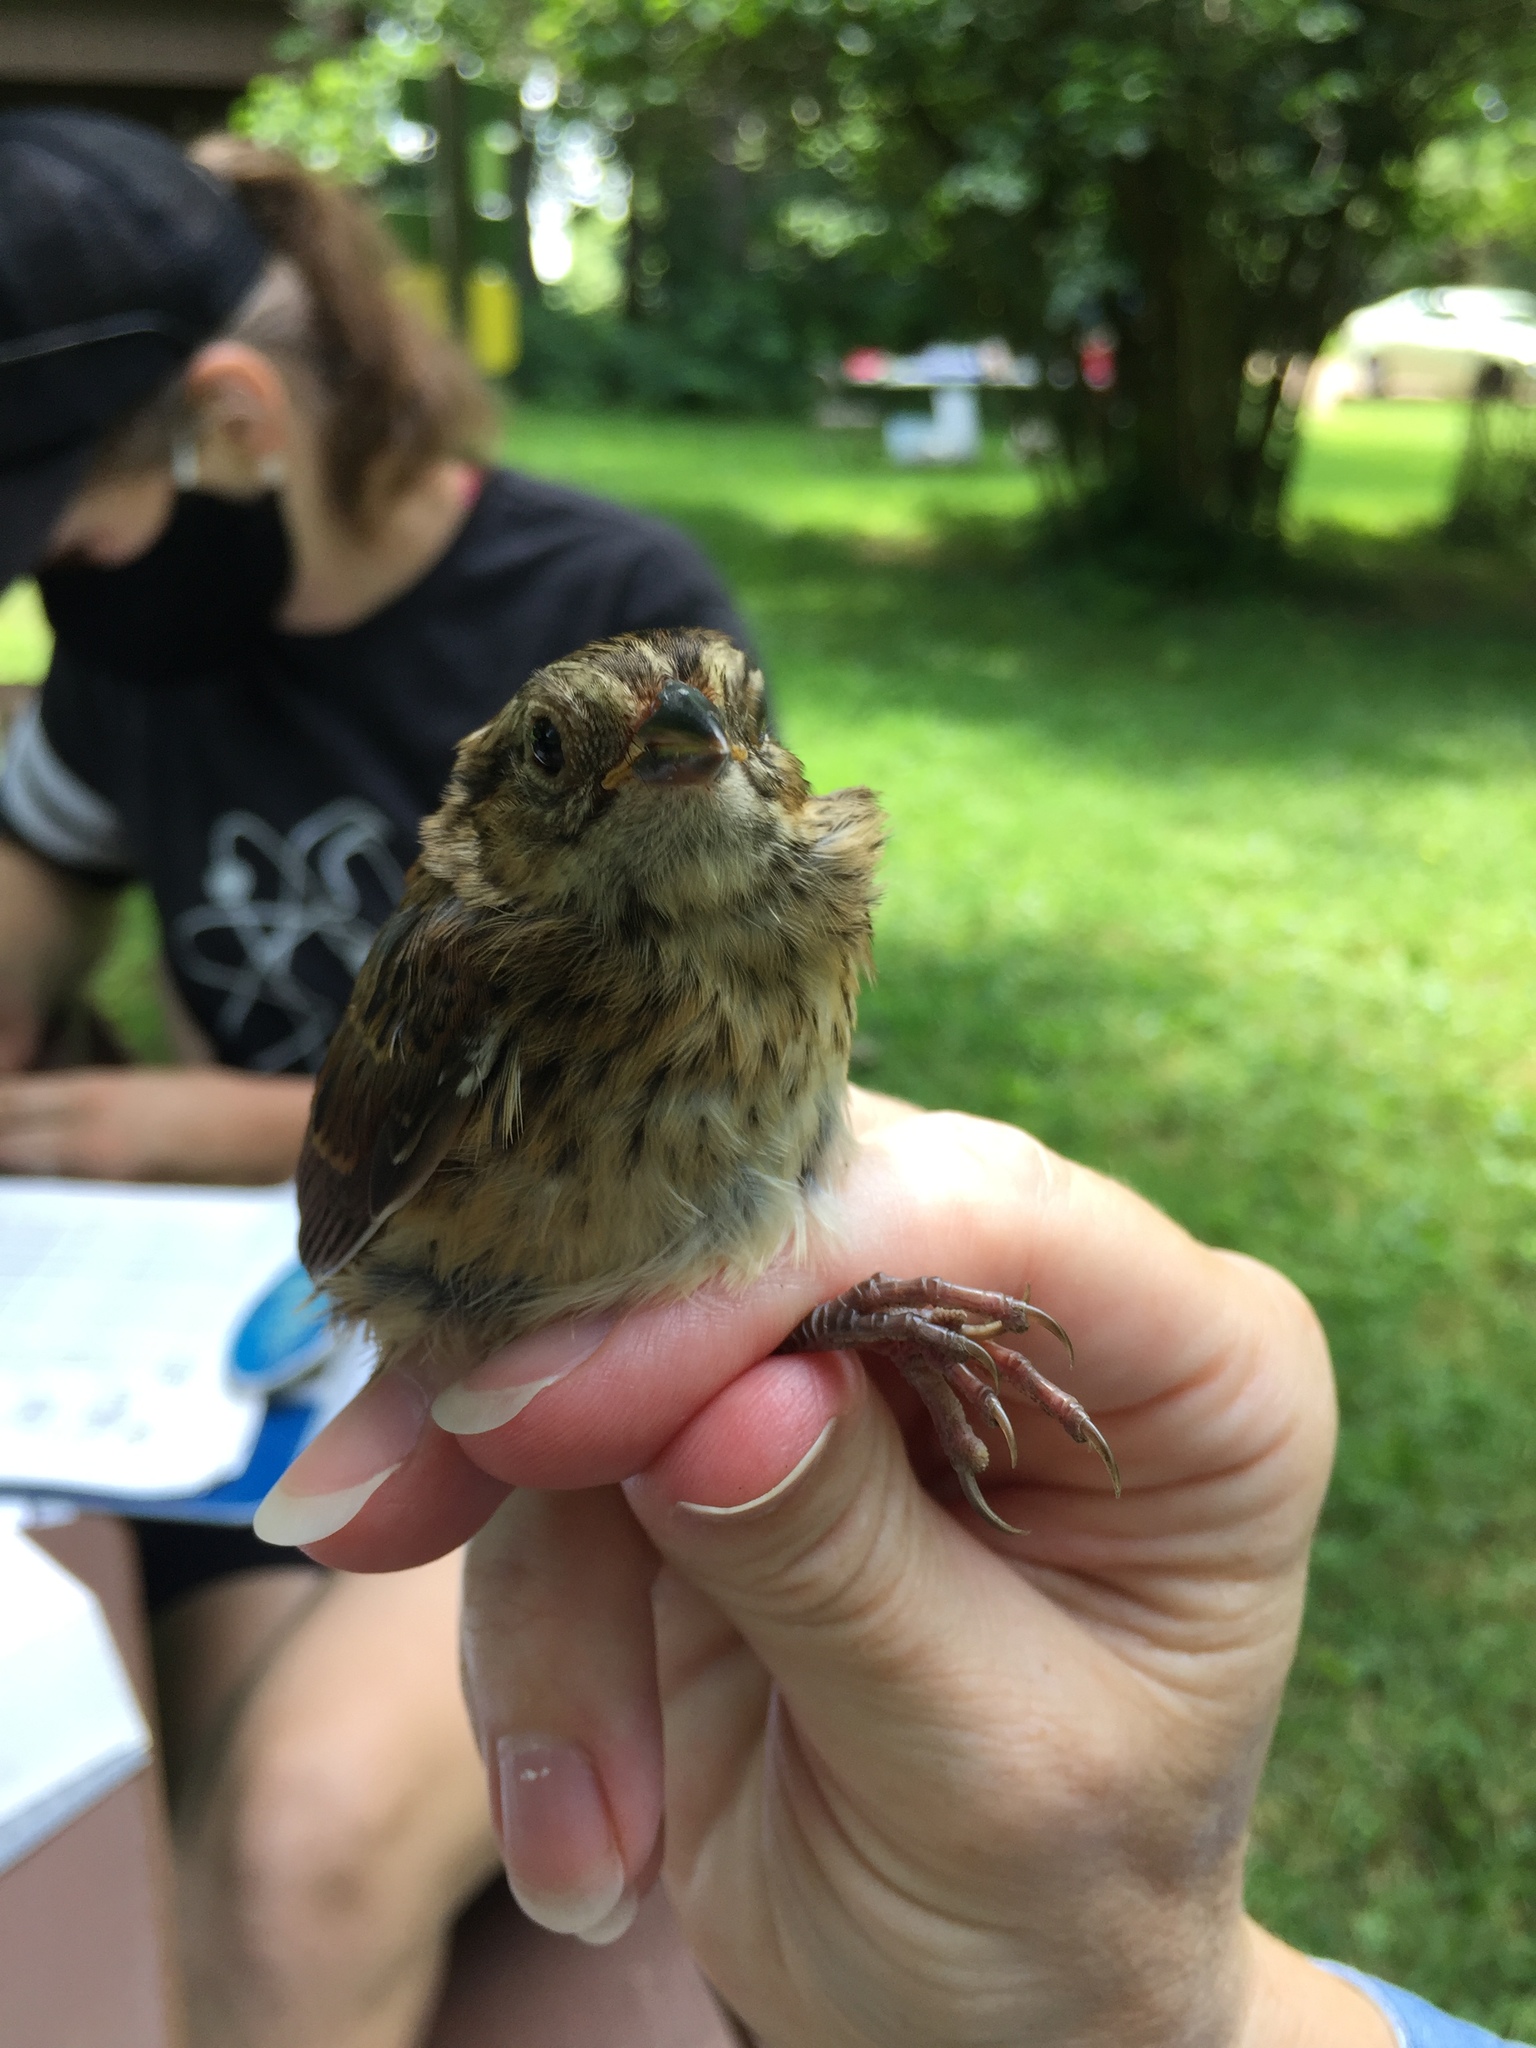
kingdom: Animalia
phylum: Chordata
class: Aves
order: Passeriformes
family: Passerellidae
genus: Melospiza
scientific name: Melospiza lincolnii
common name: Lincoln's sparrow
